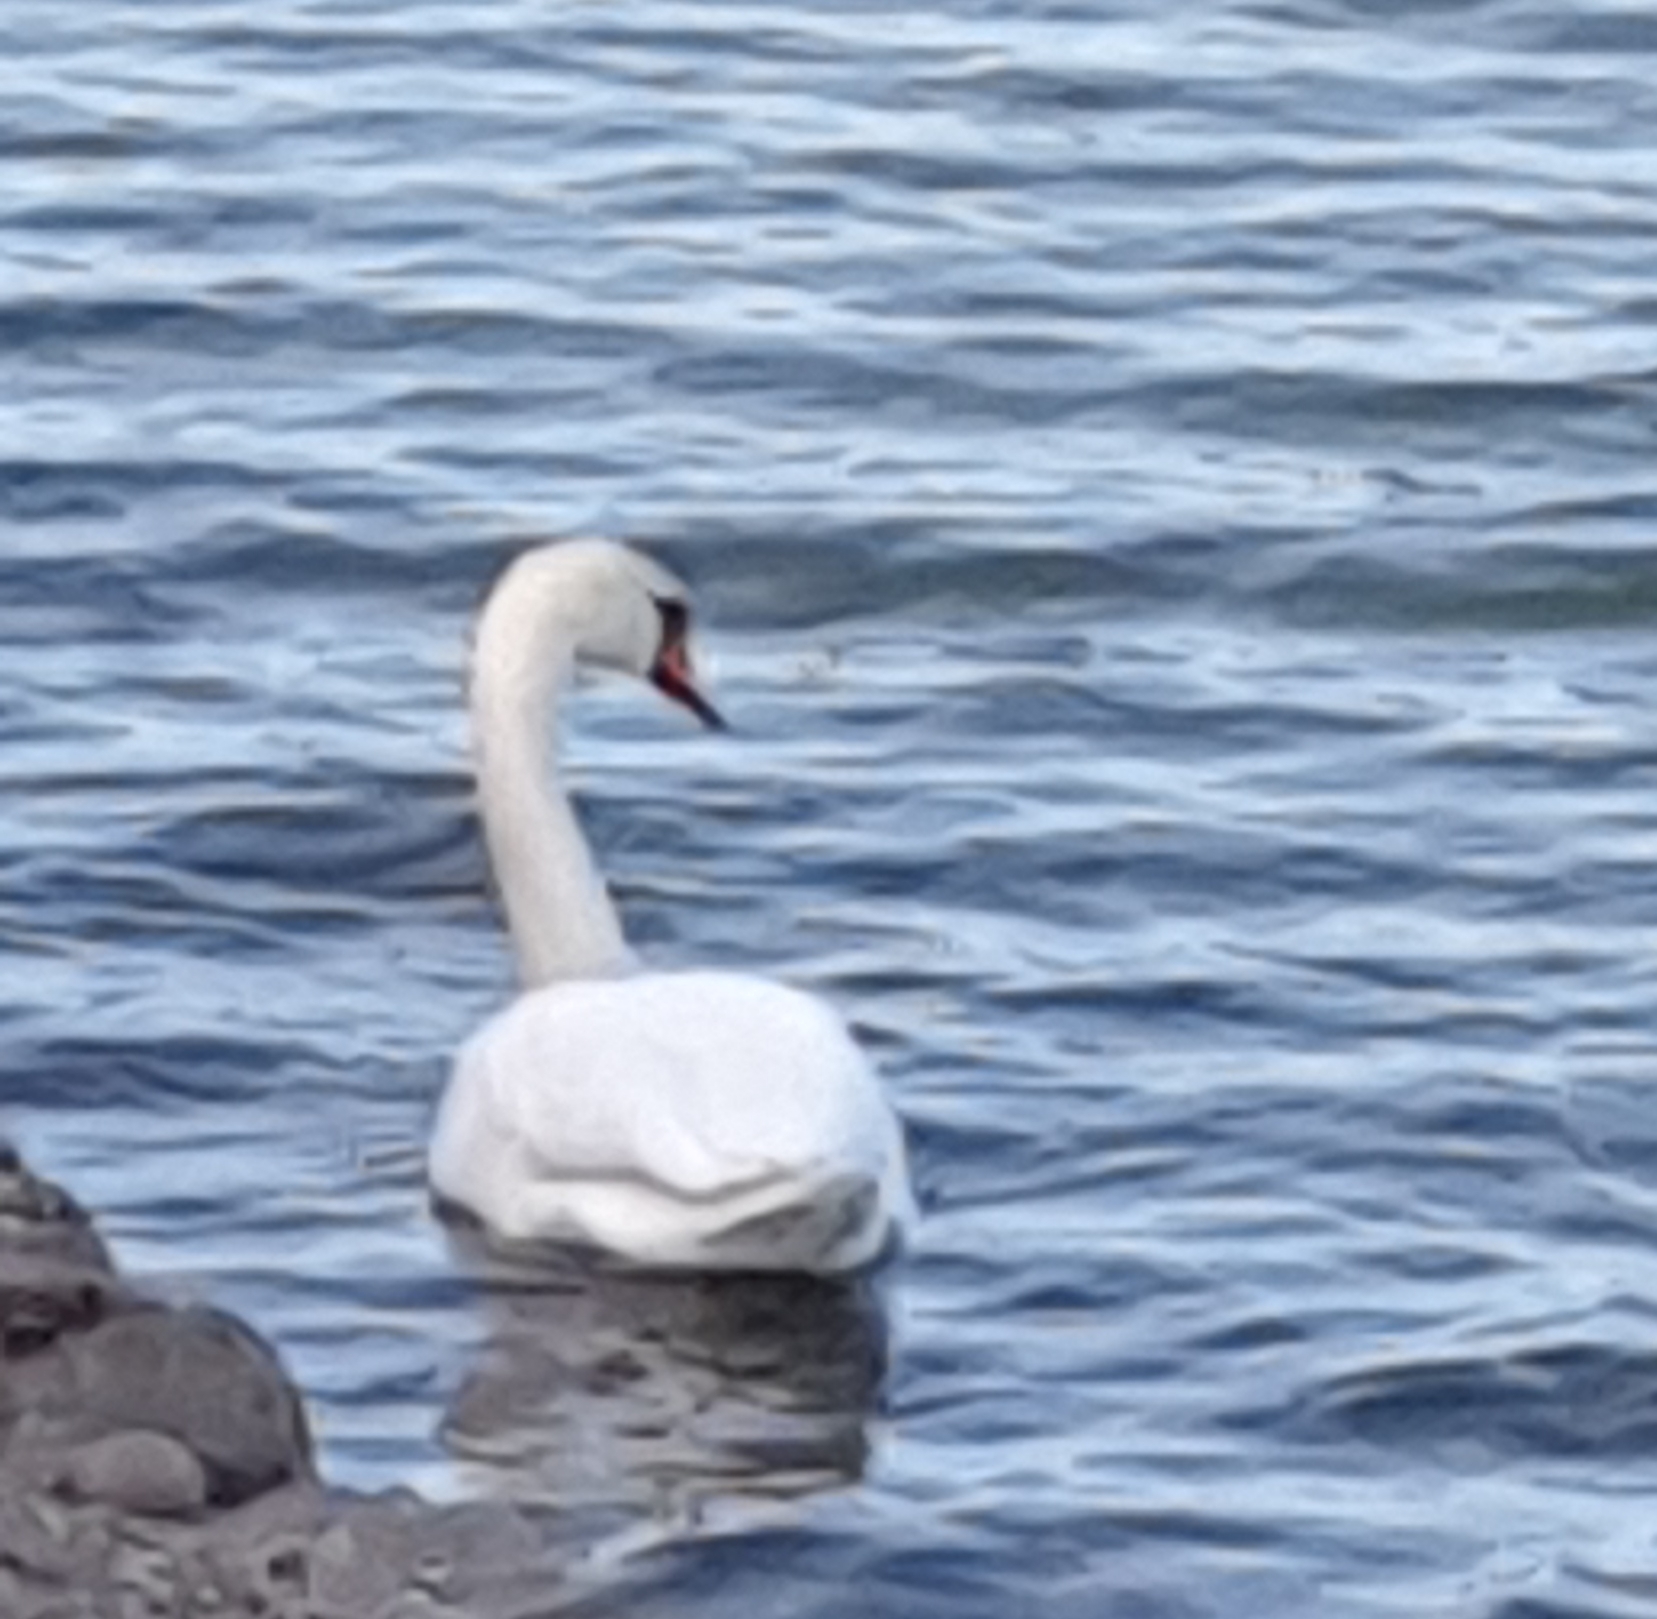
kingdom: Animalia
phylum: Chordata
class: Aves
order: Anseriformes
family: Anatidae
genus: Cygnus
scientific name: Cygnus olor
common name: Mute swan
